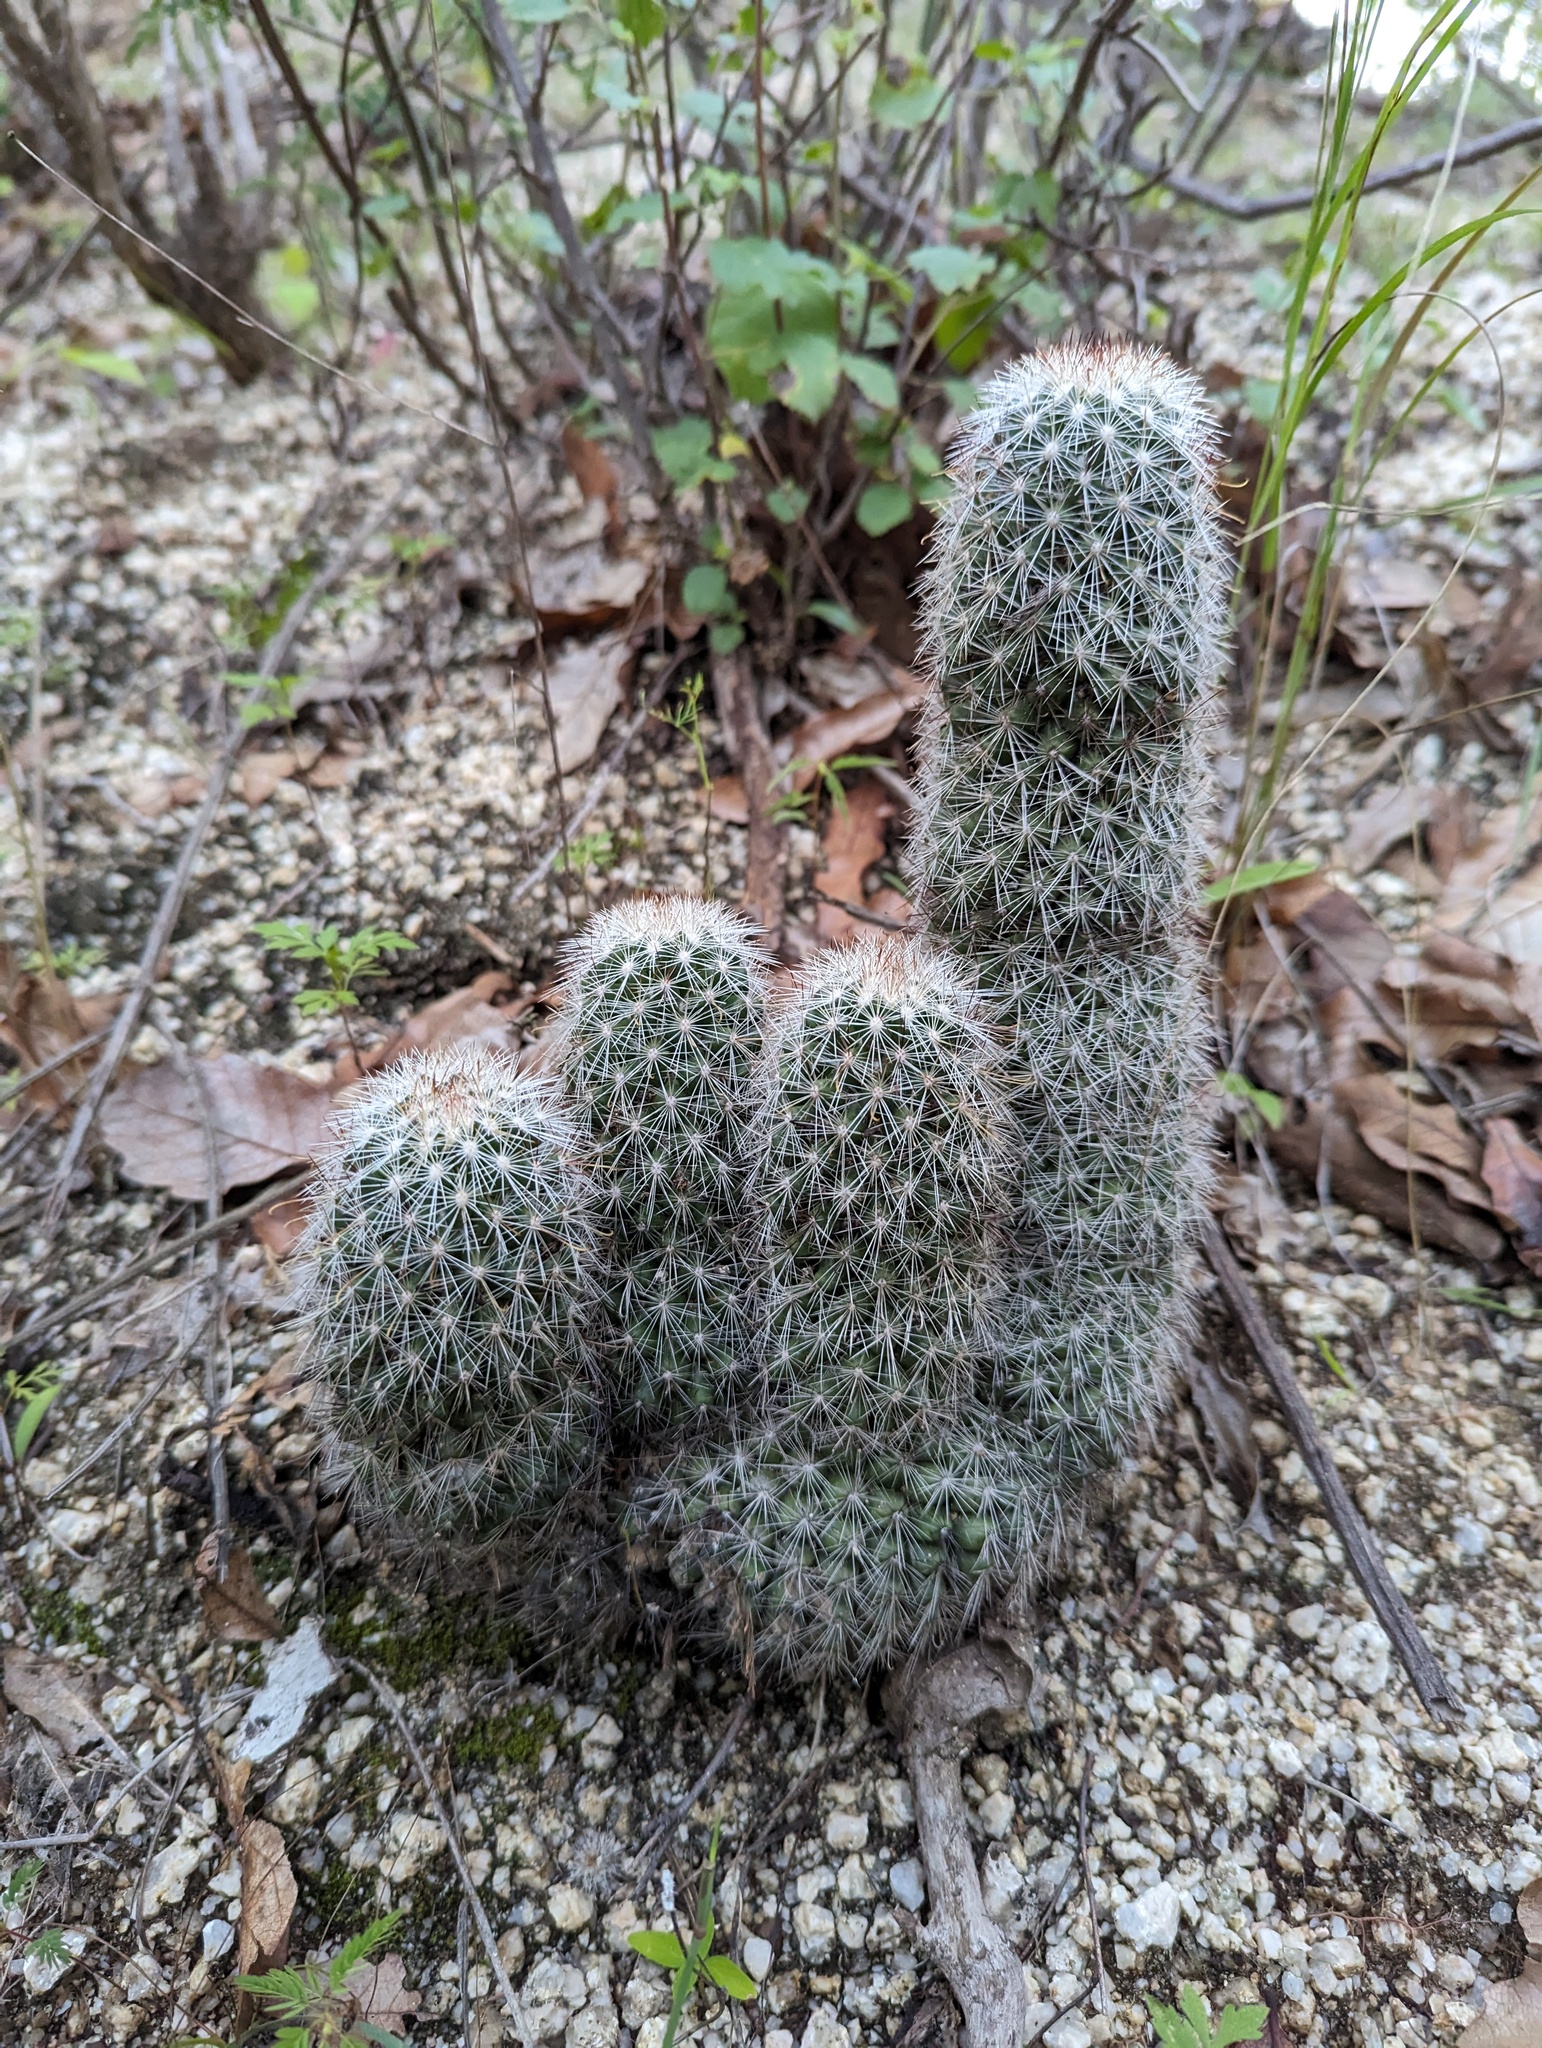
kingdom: Plantae
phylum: Tracheophyta
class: Magnoliopsida
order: Caryophyllales
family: Cactaceae
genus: Cochemiea
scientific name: Cochemiea phitauiana
